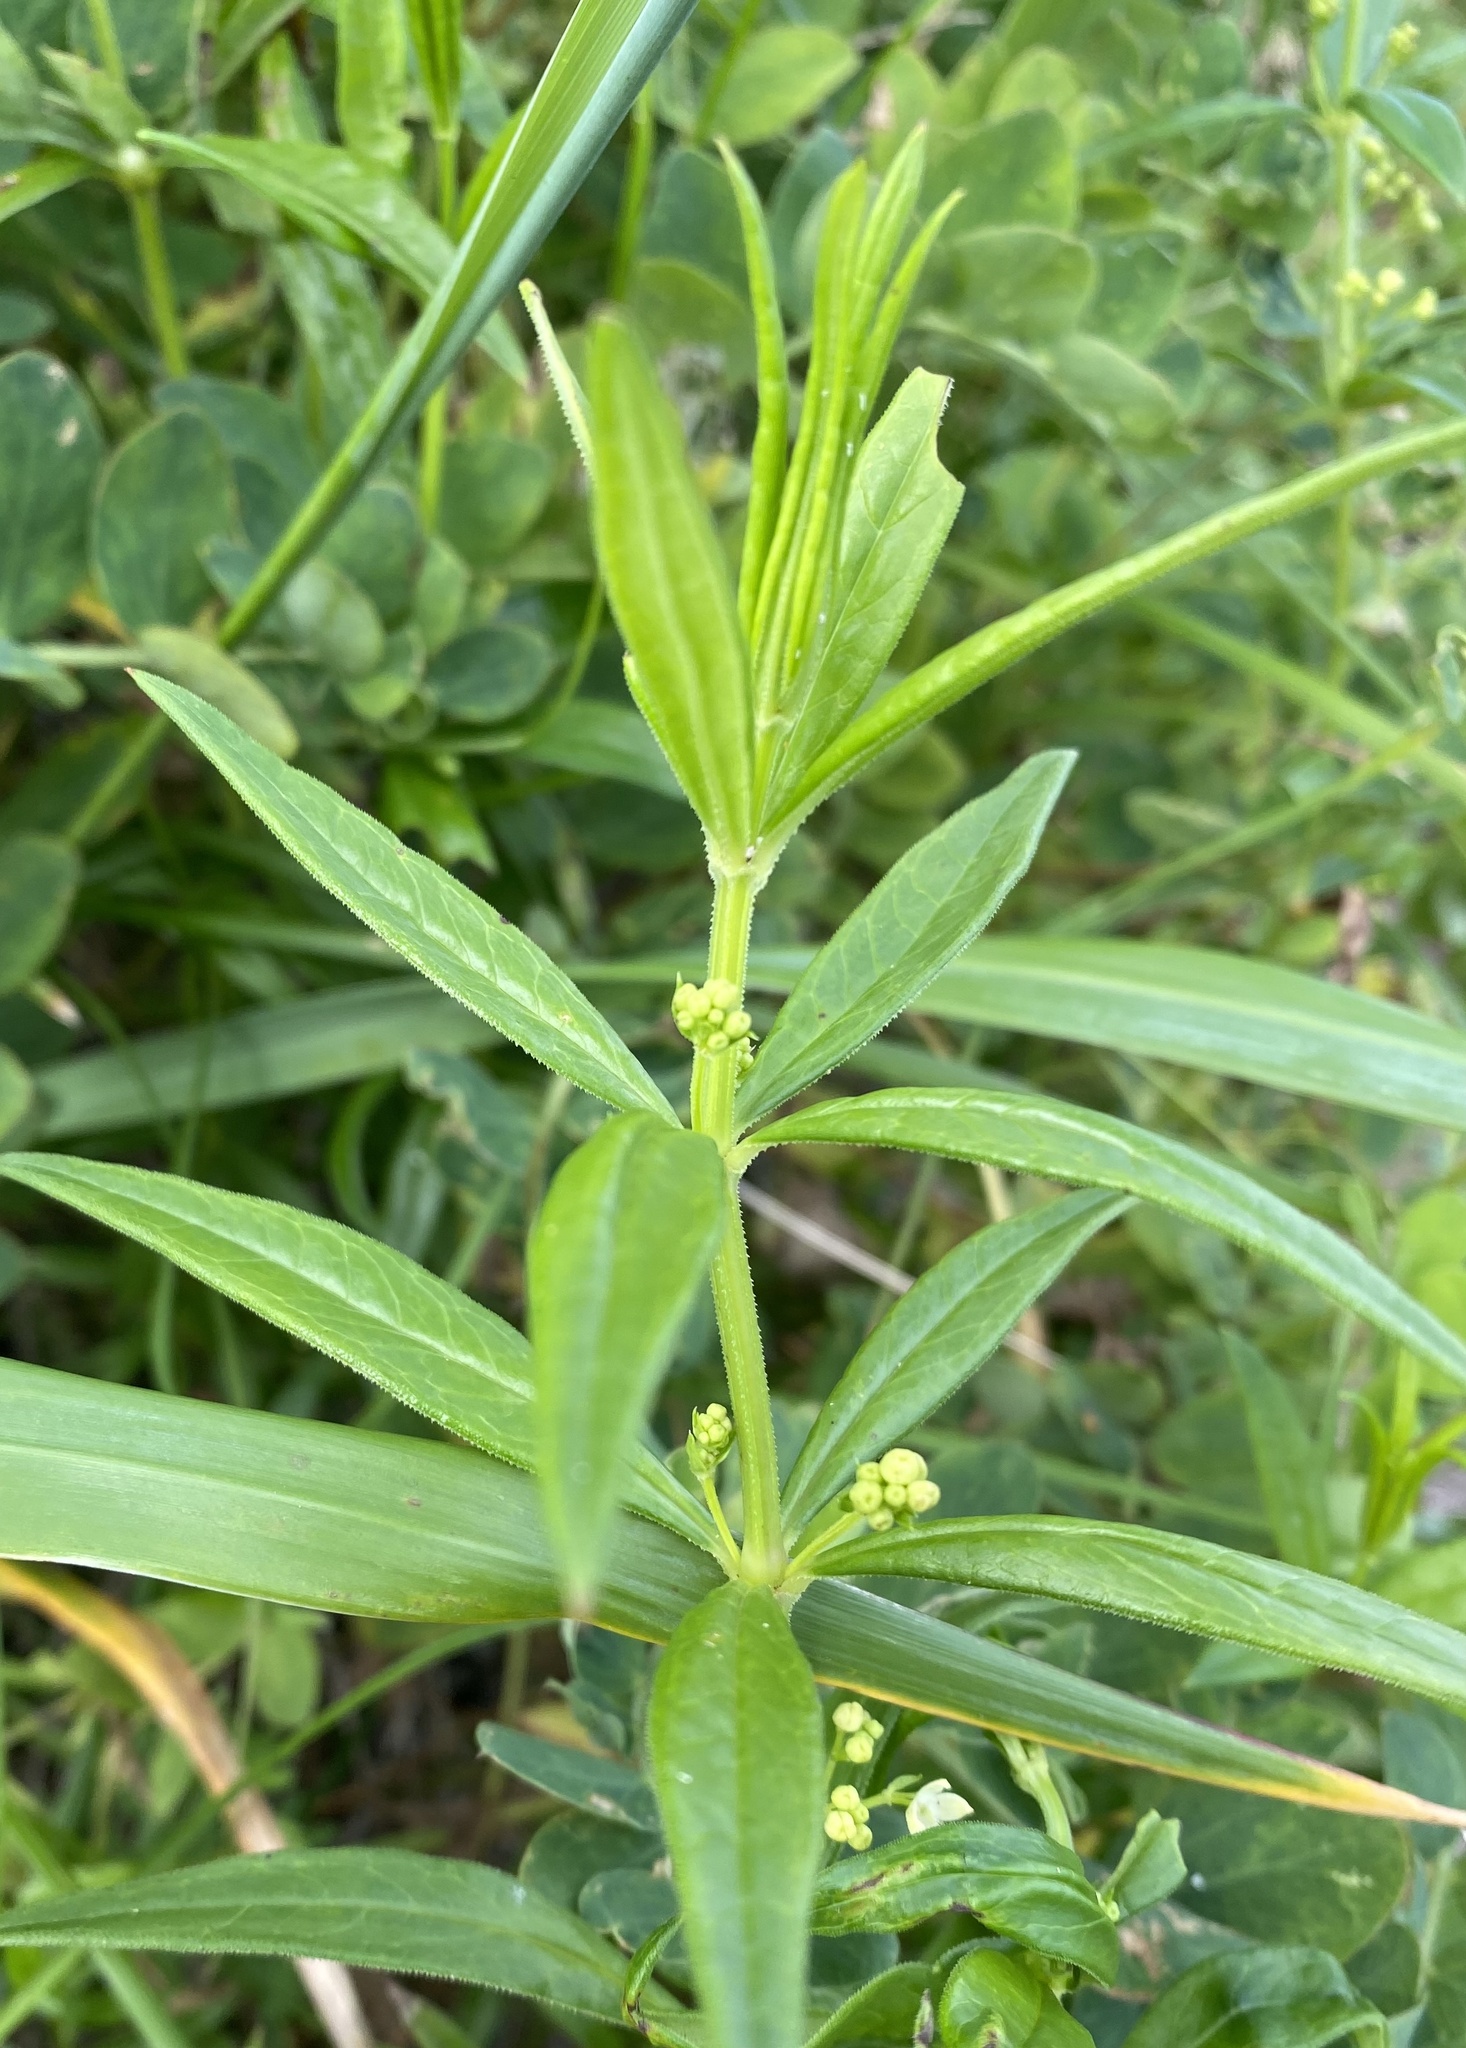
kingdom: Plantae
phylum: Tracheophyta
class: Magnoliopsida
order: Gentianales
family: Rubiaceae
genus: Rubia
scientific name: Rubia jesoensis
